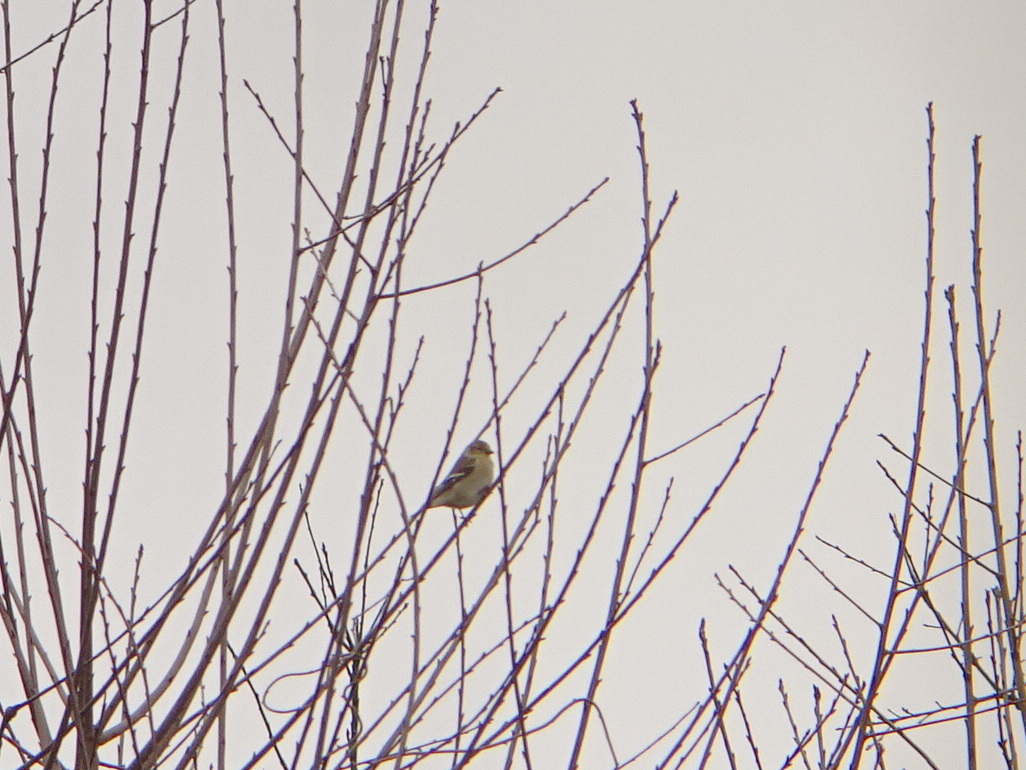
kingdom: Animalia
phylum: Chordata
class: Aves
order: Passeriformes
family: Fringillidae
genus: Spinus
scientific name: Spinus tristis
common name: American goldfinch
